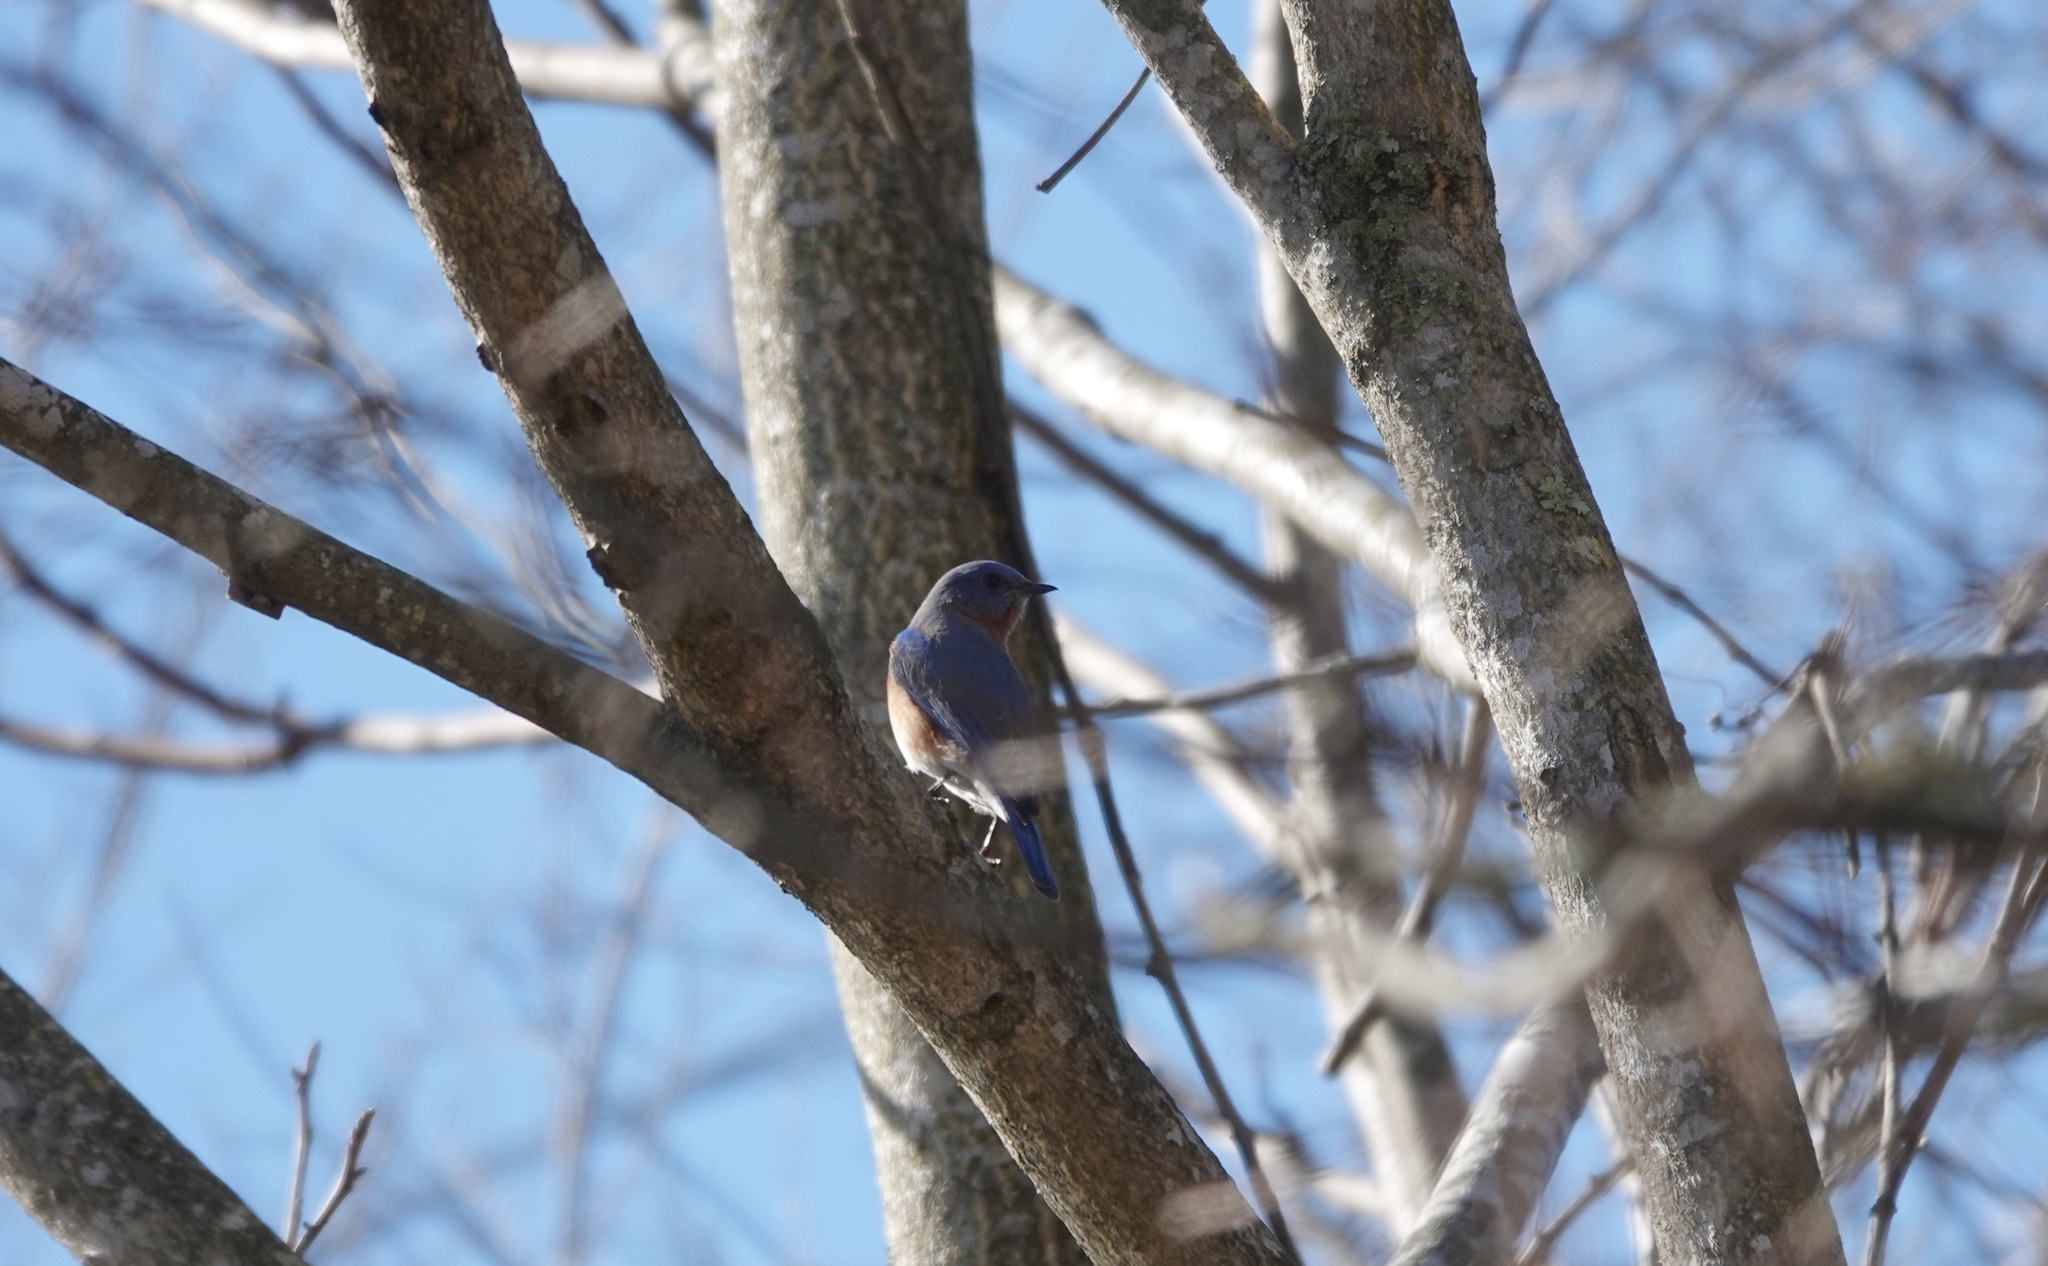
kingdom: Animalia
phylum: Chordata
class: Aves
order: Passeriformes
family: Turdidae
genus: Sialia
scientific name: Sialia sialis
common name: Eastern bluebird
